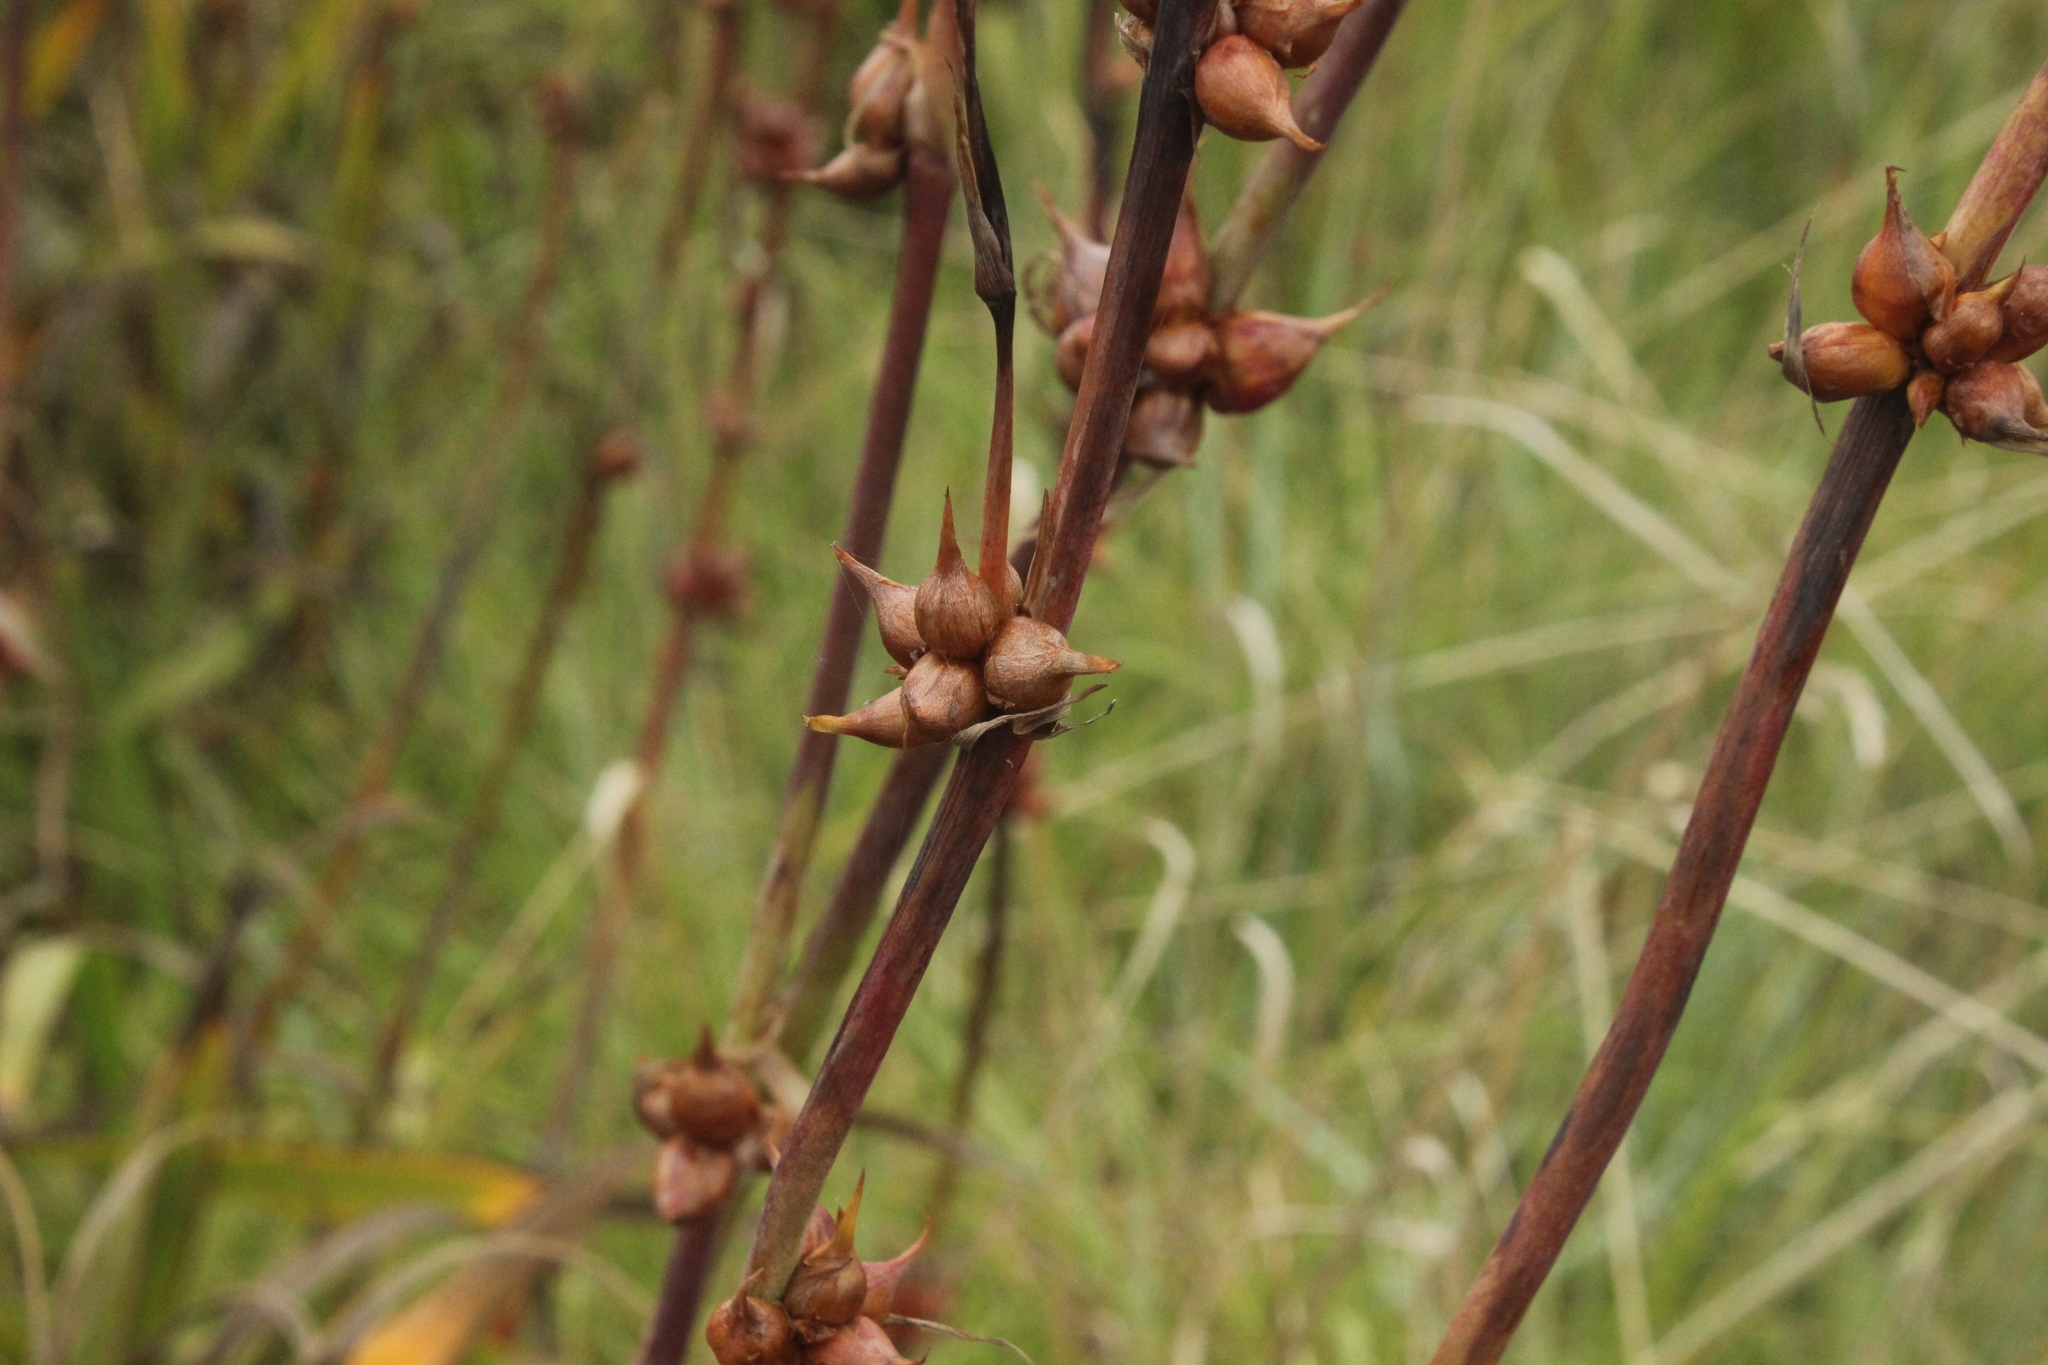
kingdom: Plantae
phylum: Tracheophyta
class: Liliopsida
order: Asparagales
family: Iridaceae
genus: Watsonia
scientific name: Watsonia meriana
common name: Bulbil bugle-lily
